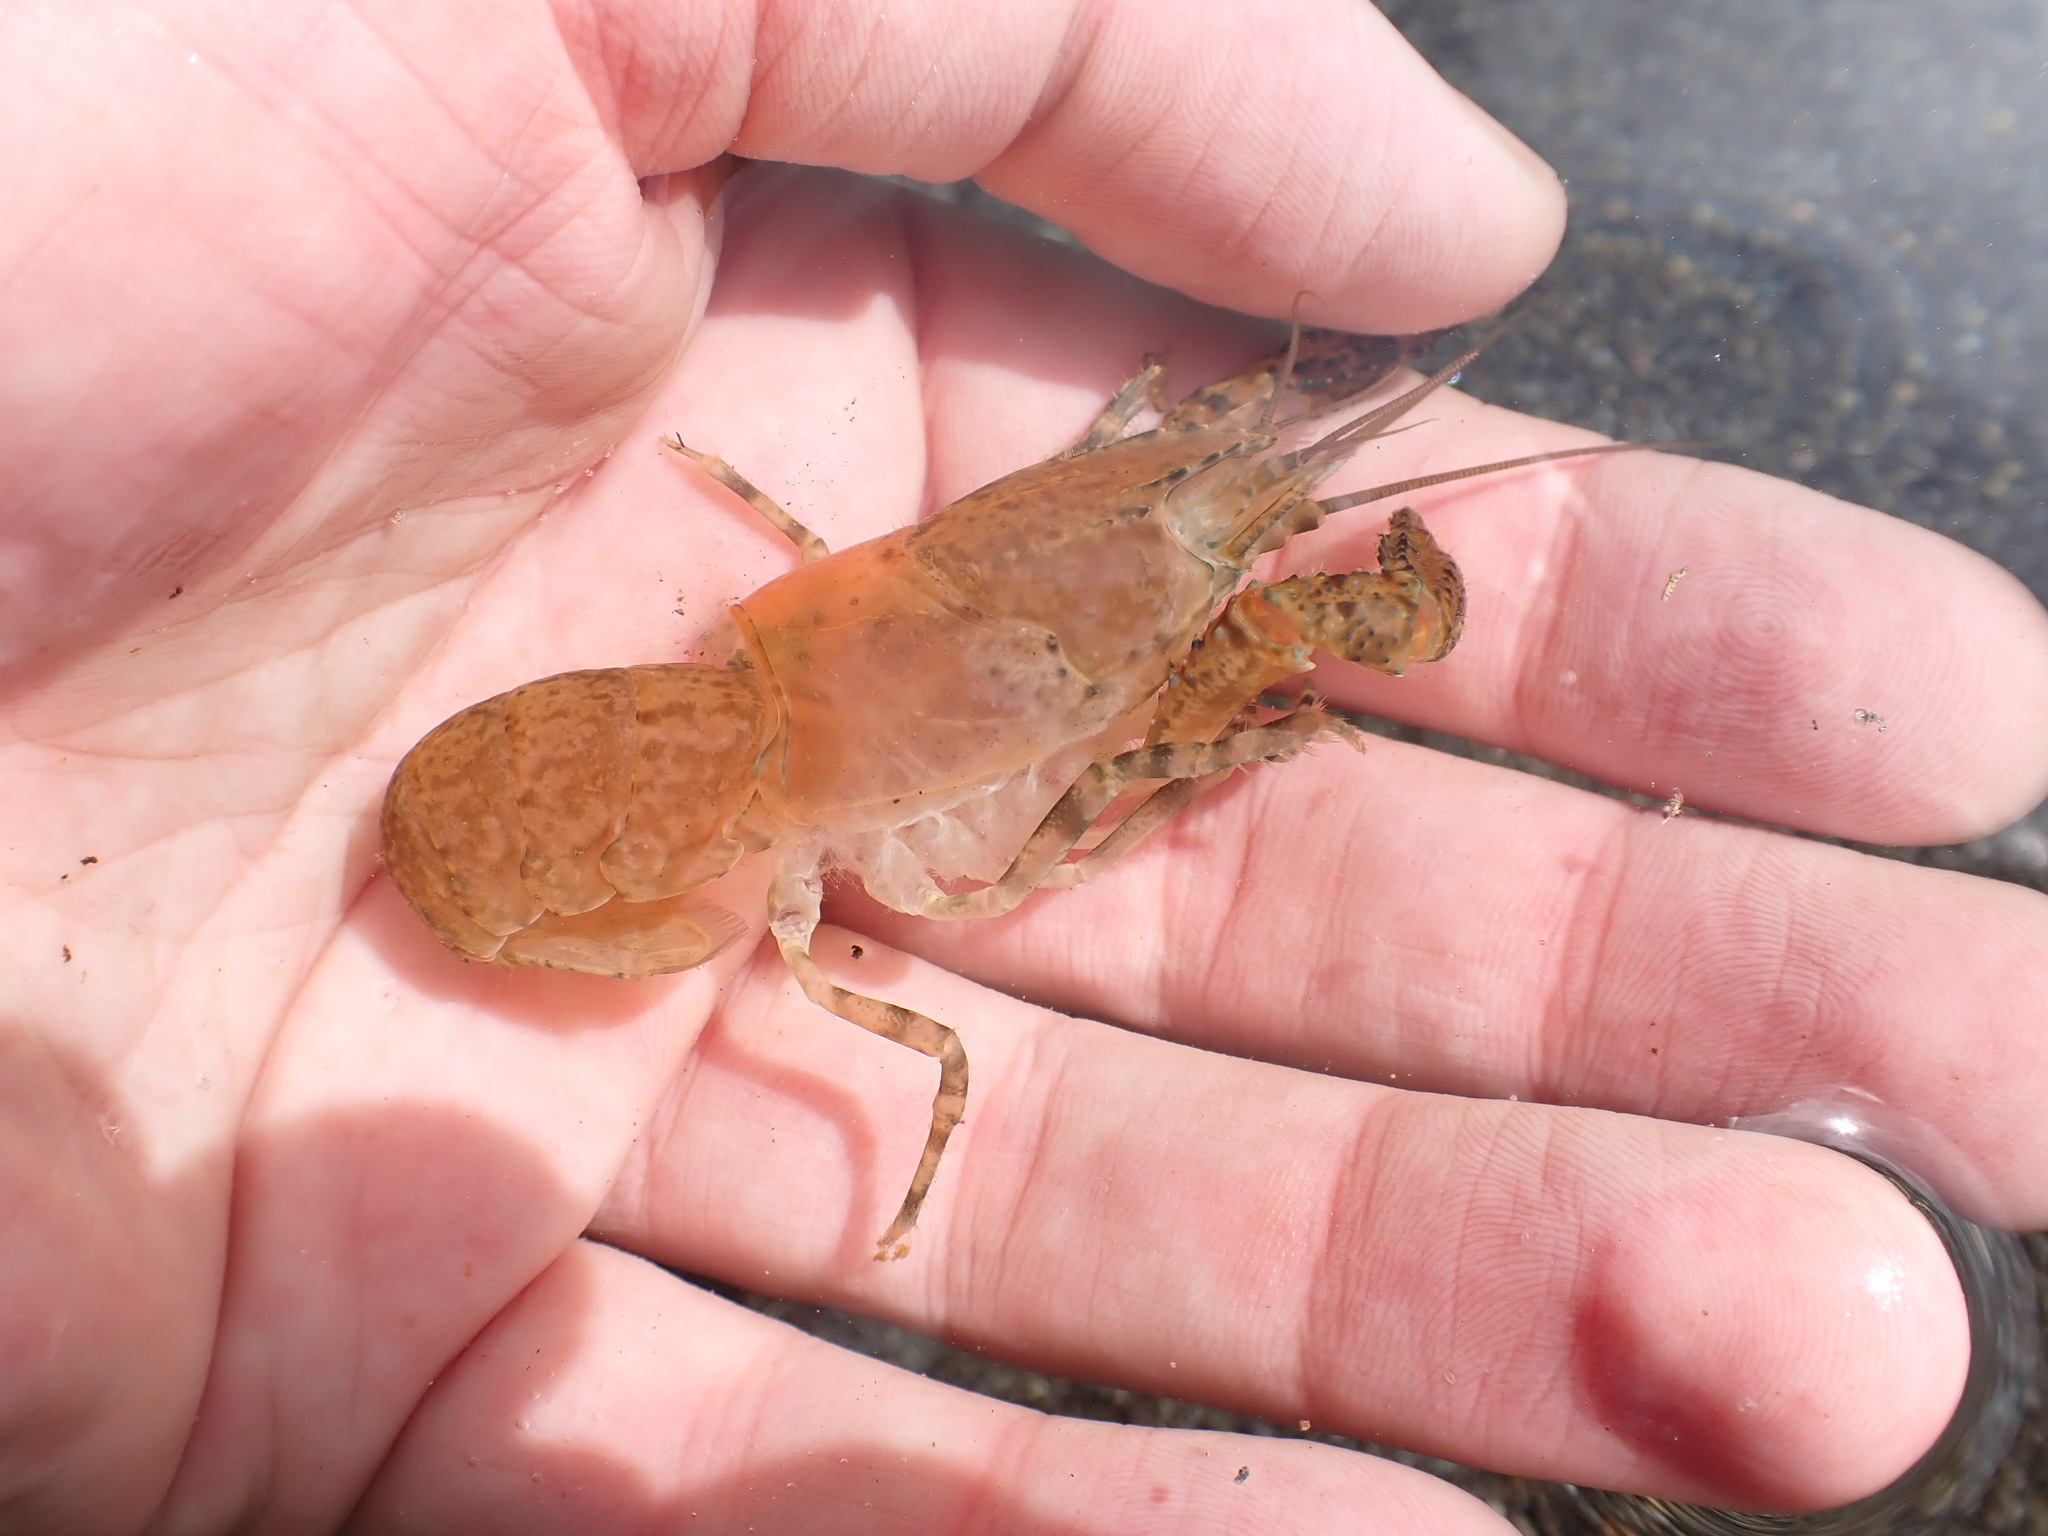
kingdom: Animalia
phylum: Arthropoda
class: Malacostraca
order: Decapoda
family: Parastacidae
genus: Paranephrops
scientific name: Paranephrops planifrons
